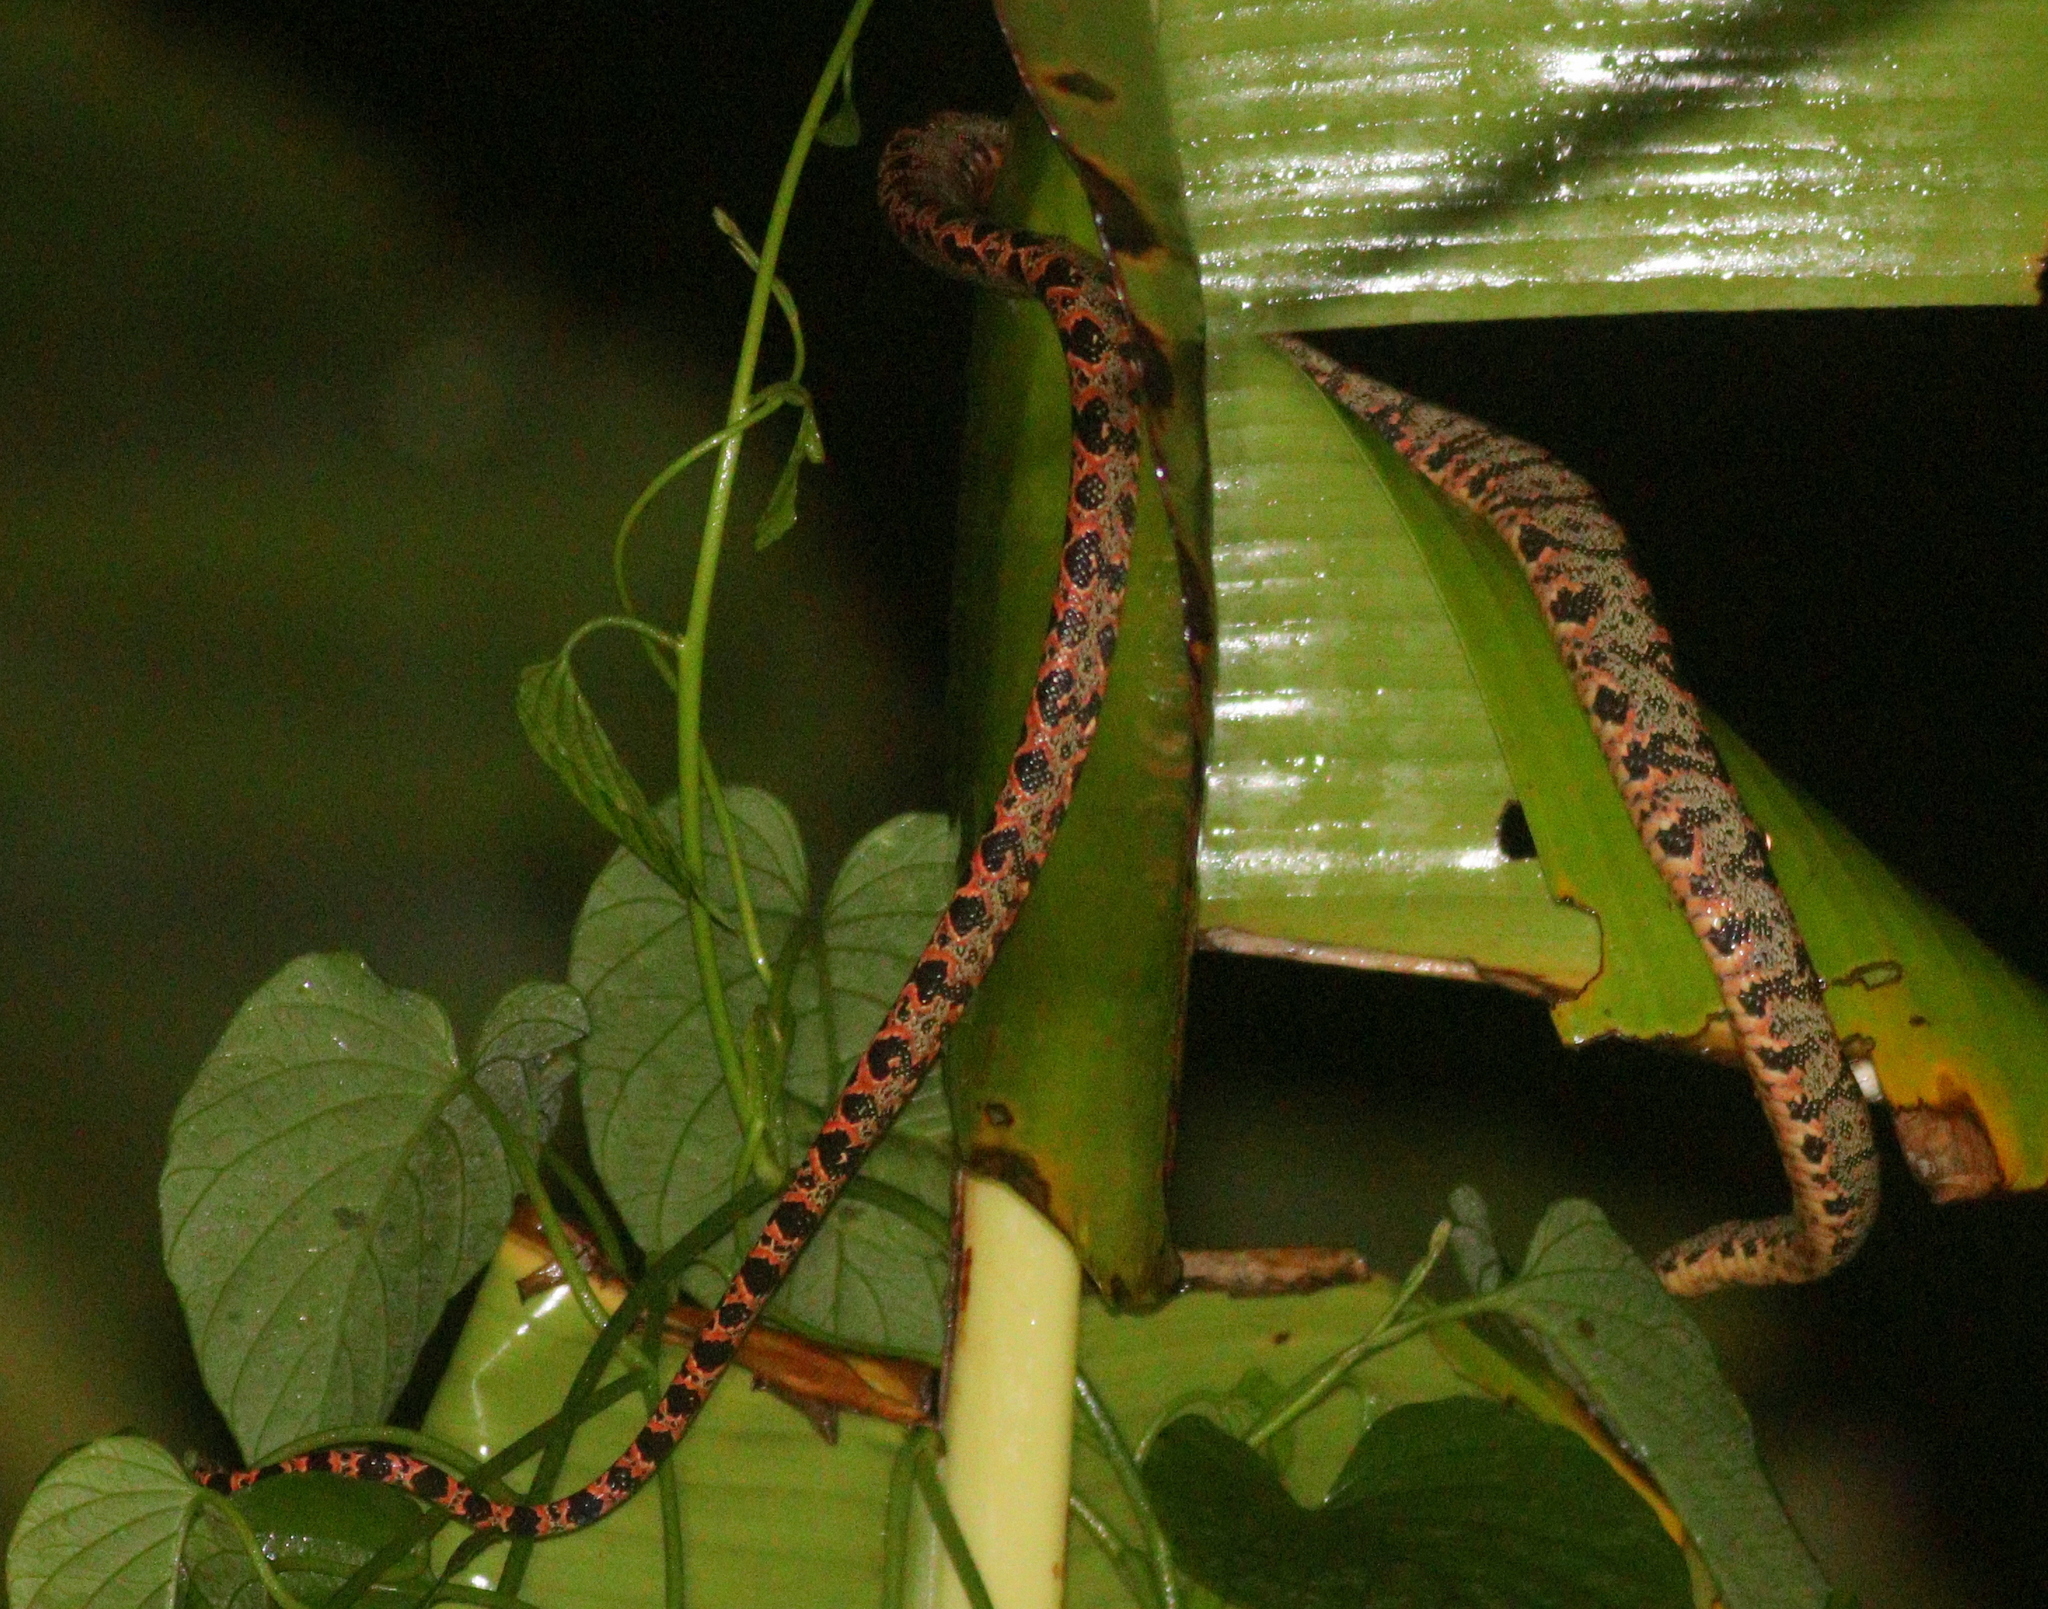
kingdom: Animalia
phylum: Chordata
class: Squamata
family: Boidae
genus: Corallus
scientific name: Corallus hortulana
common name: Garden tree boa
